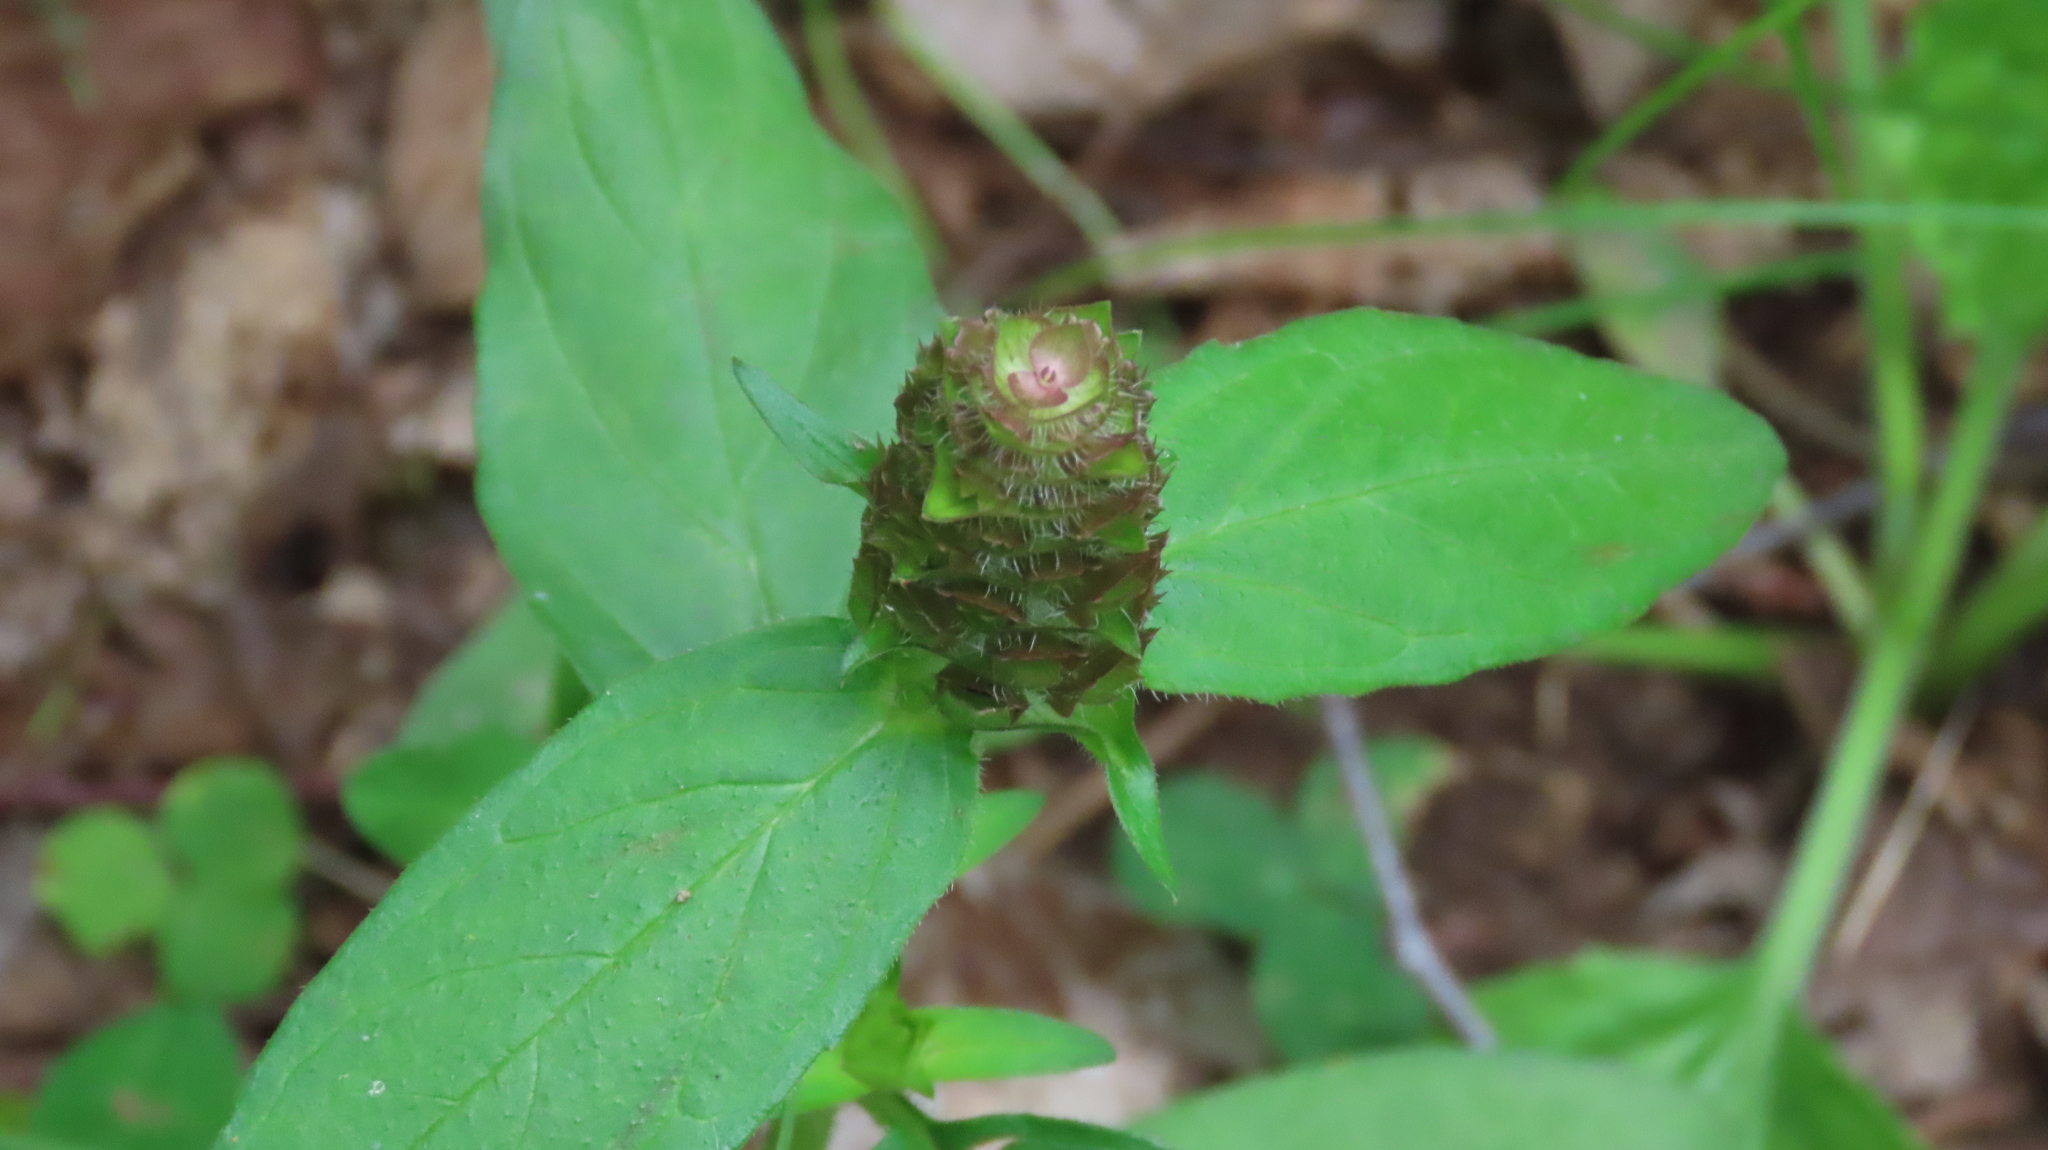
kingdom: Plantae
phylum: Tracheophyta
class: Magnoliopsida
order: Lamiales
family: Lamiaceae
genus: Prunella
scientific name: Prunella vulgaris
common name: Heal-all
